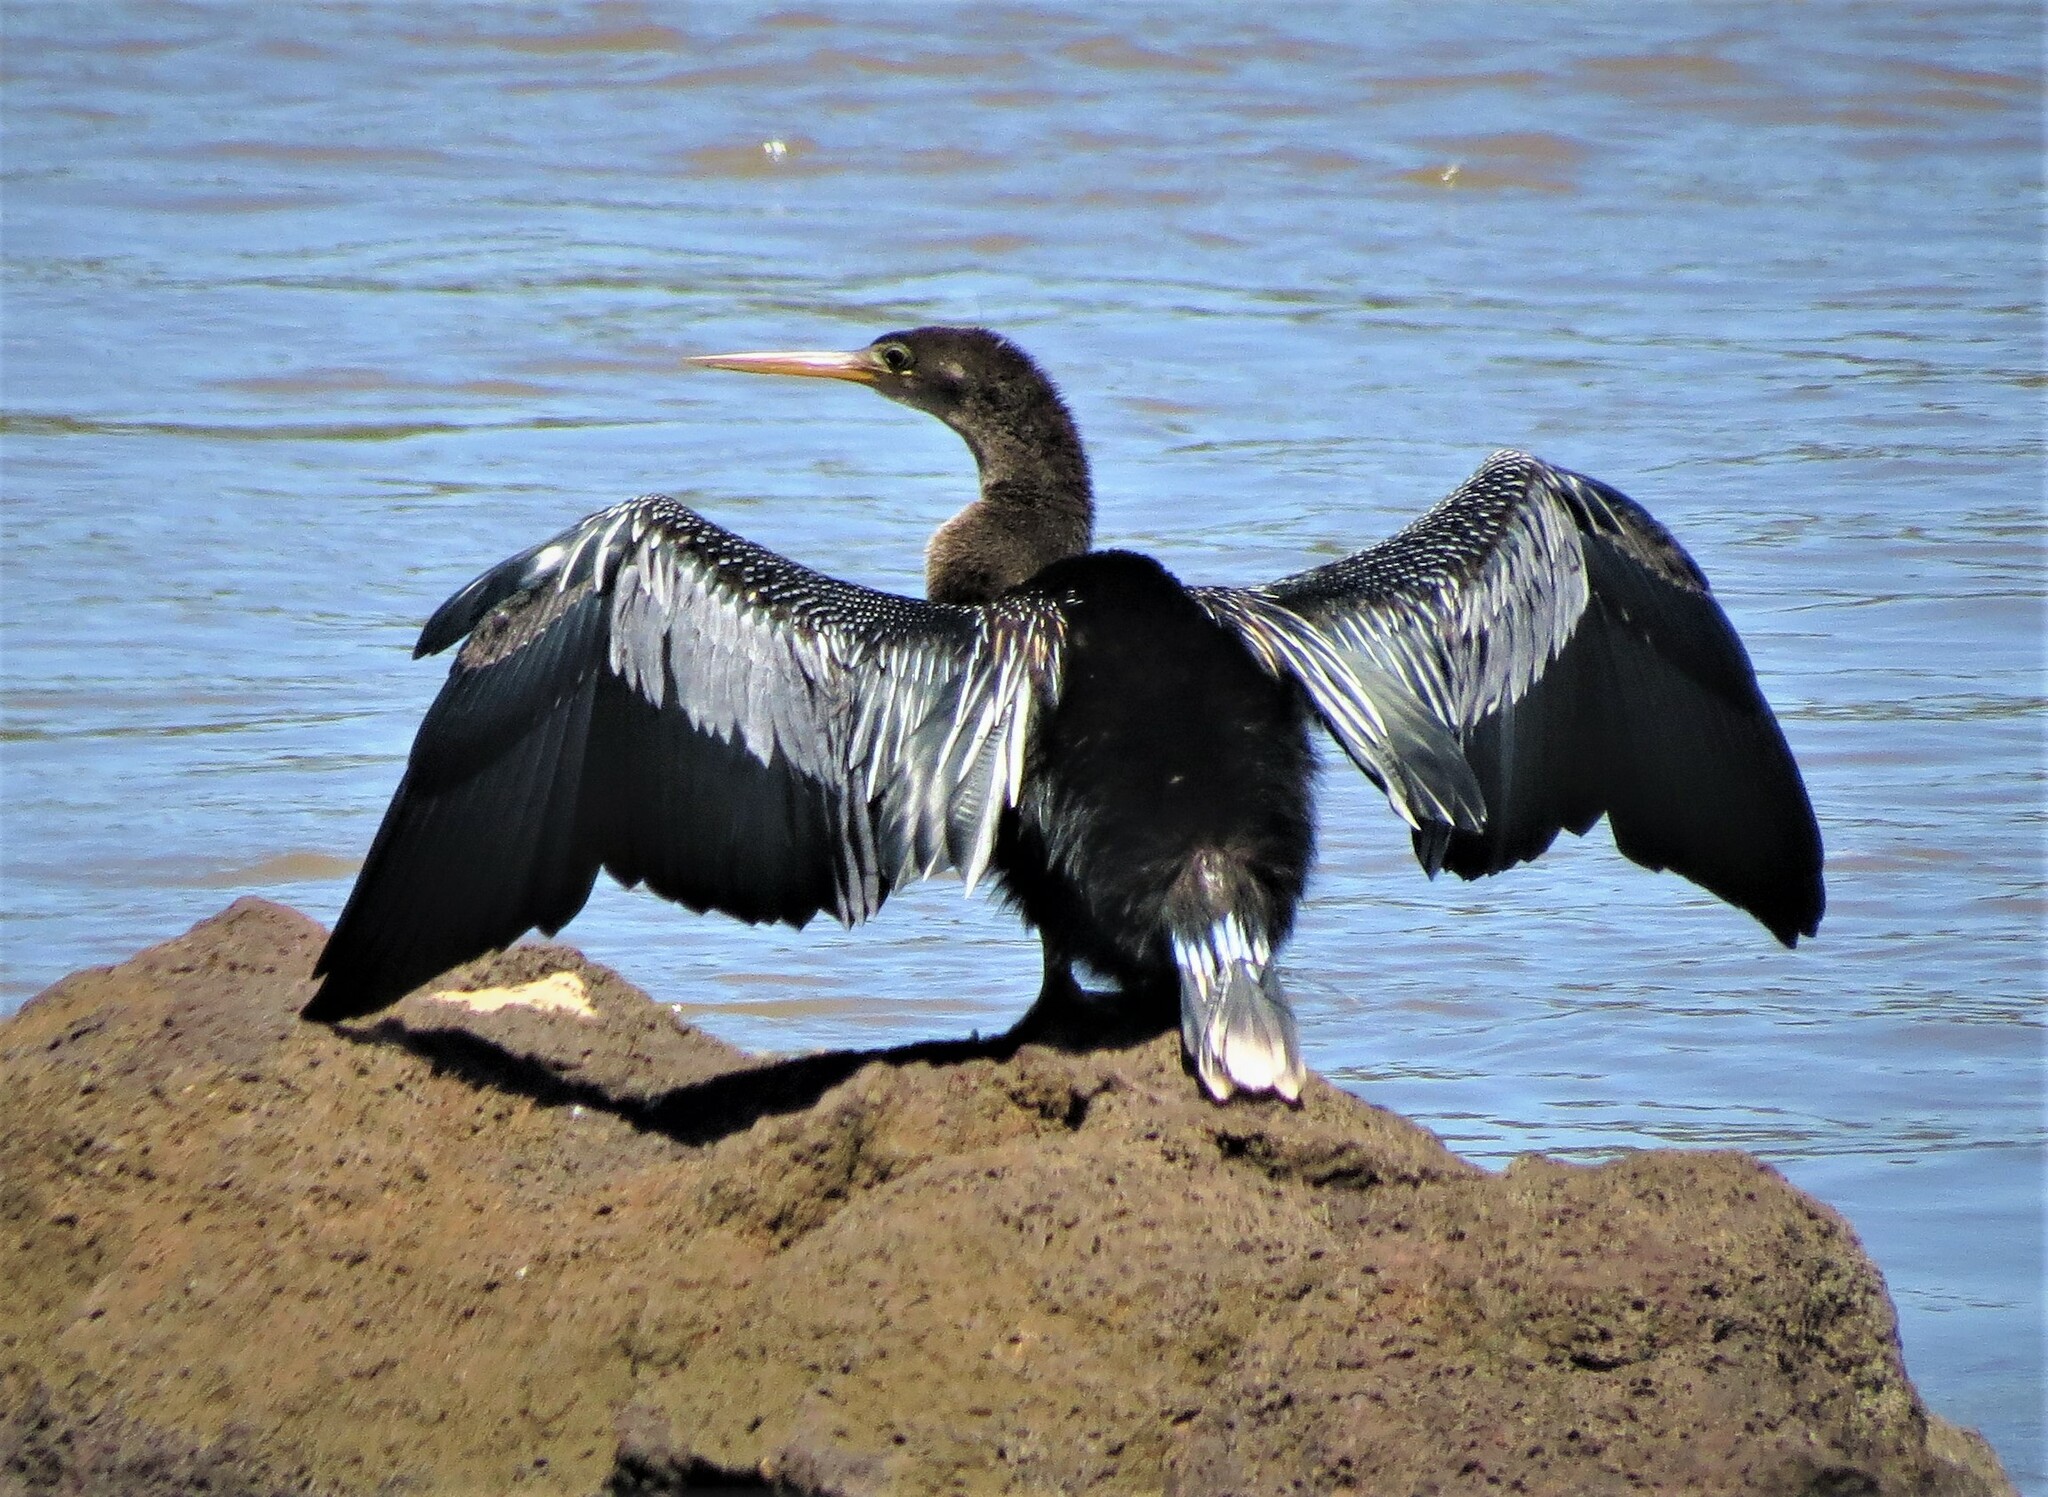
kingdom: Animalia
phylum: Chordata
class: Aves
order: Suliformes
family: Anhingidae
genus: Anhinga
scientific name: Anhinga anhinga
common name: Anhinga
